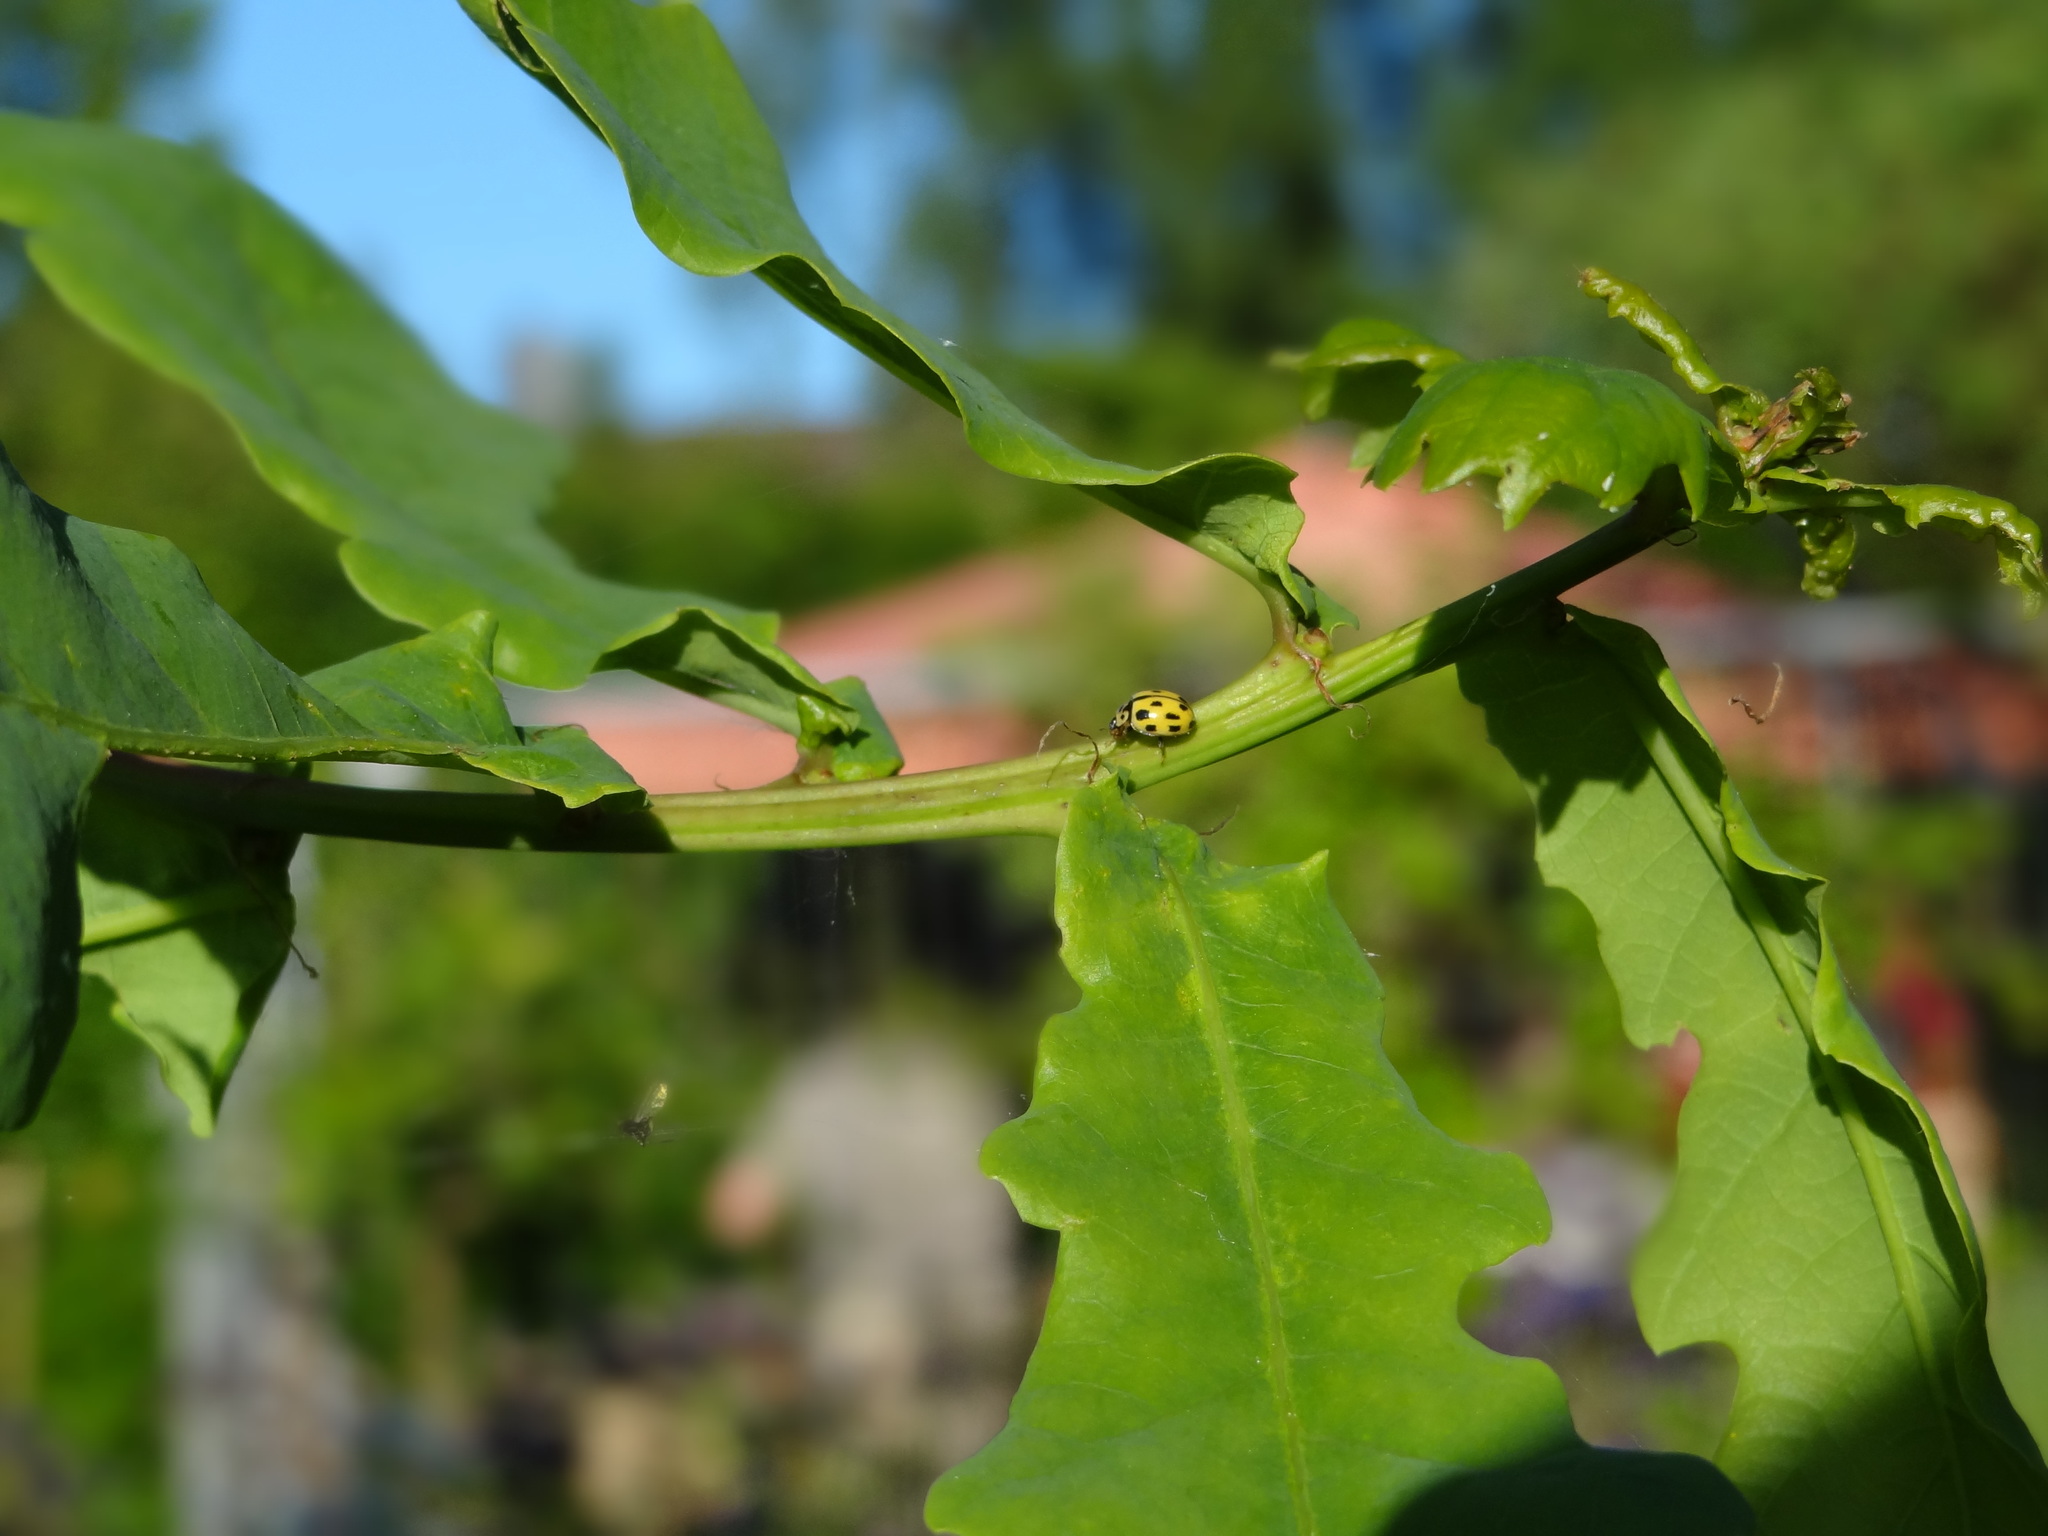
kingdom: Animalia
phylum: Arthropoda
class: Insecta
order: Coleoptera
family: Coccinellidae
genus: Propylaea
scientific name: Propylaea quatuordecimpunctata
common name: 14-spotted ladybird beetle
